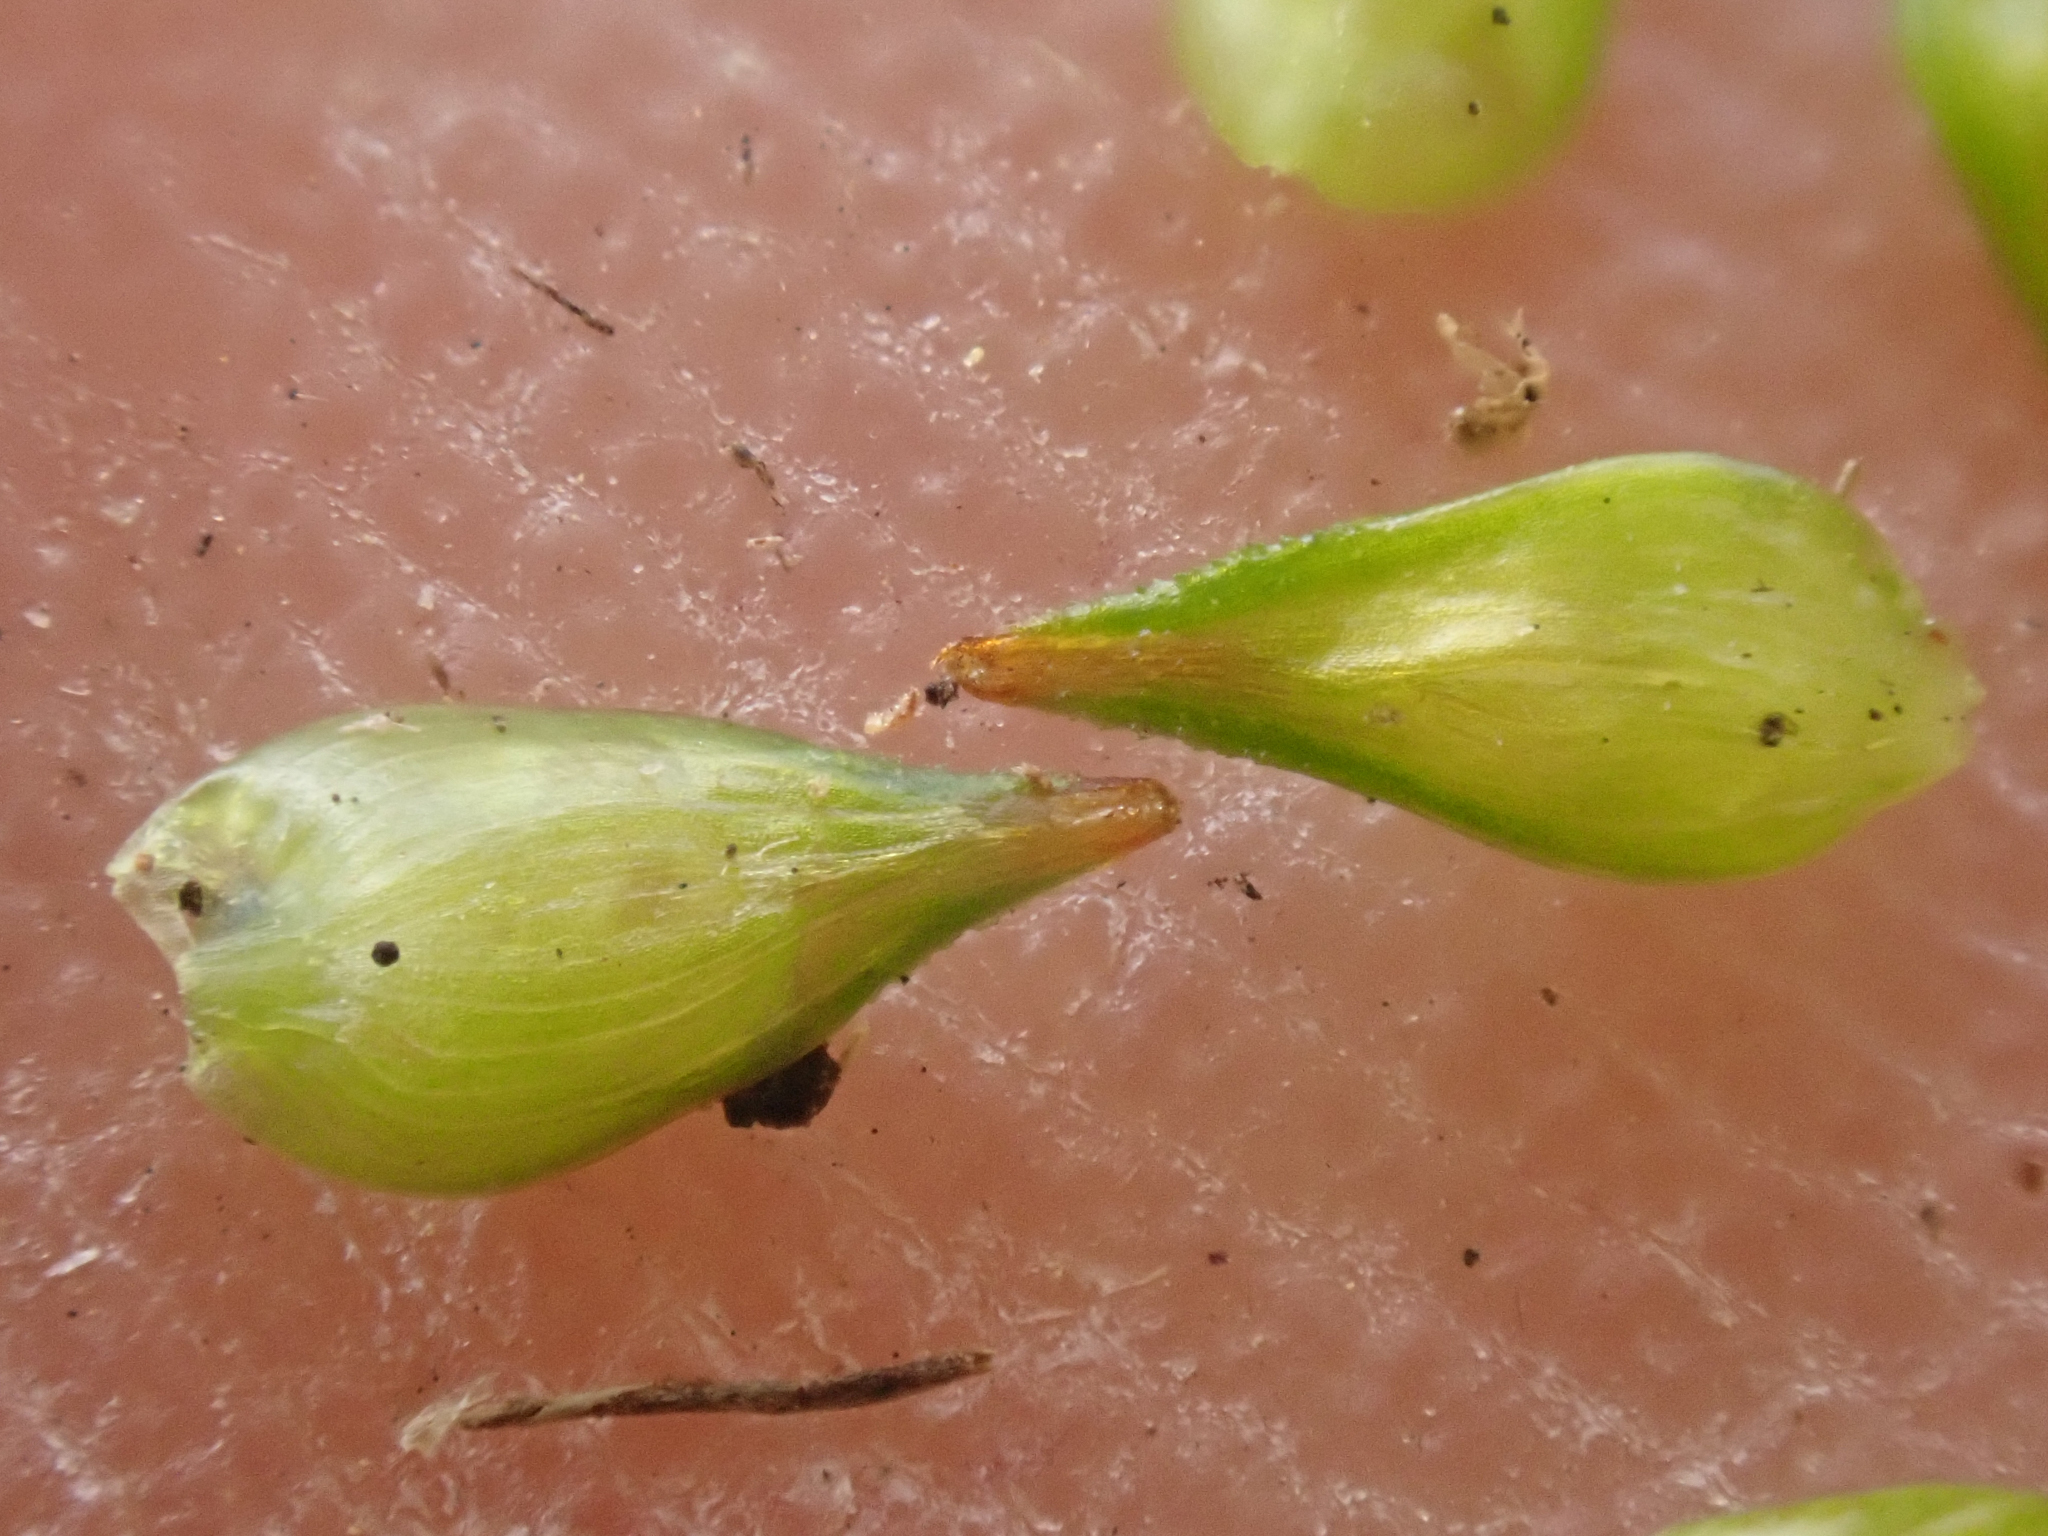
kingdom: Plantae
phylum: Tracheophyta
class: Liliopsida
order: Poales
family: Cyperaceae
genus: Carex
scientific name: Carex echinata
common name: Star sedge
